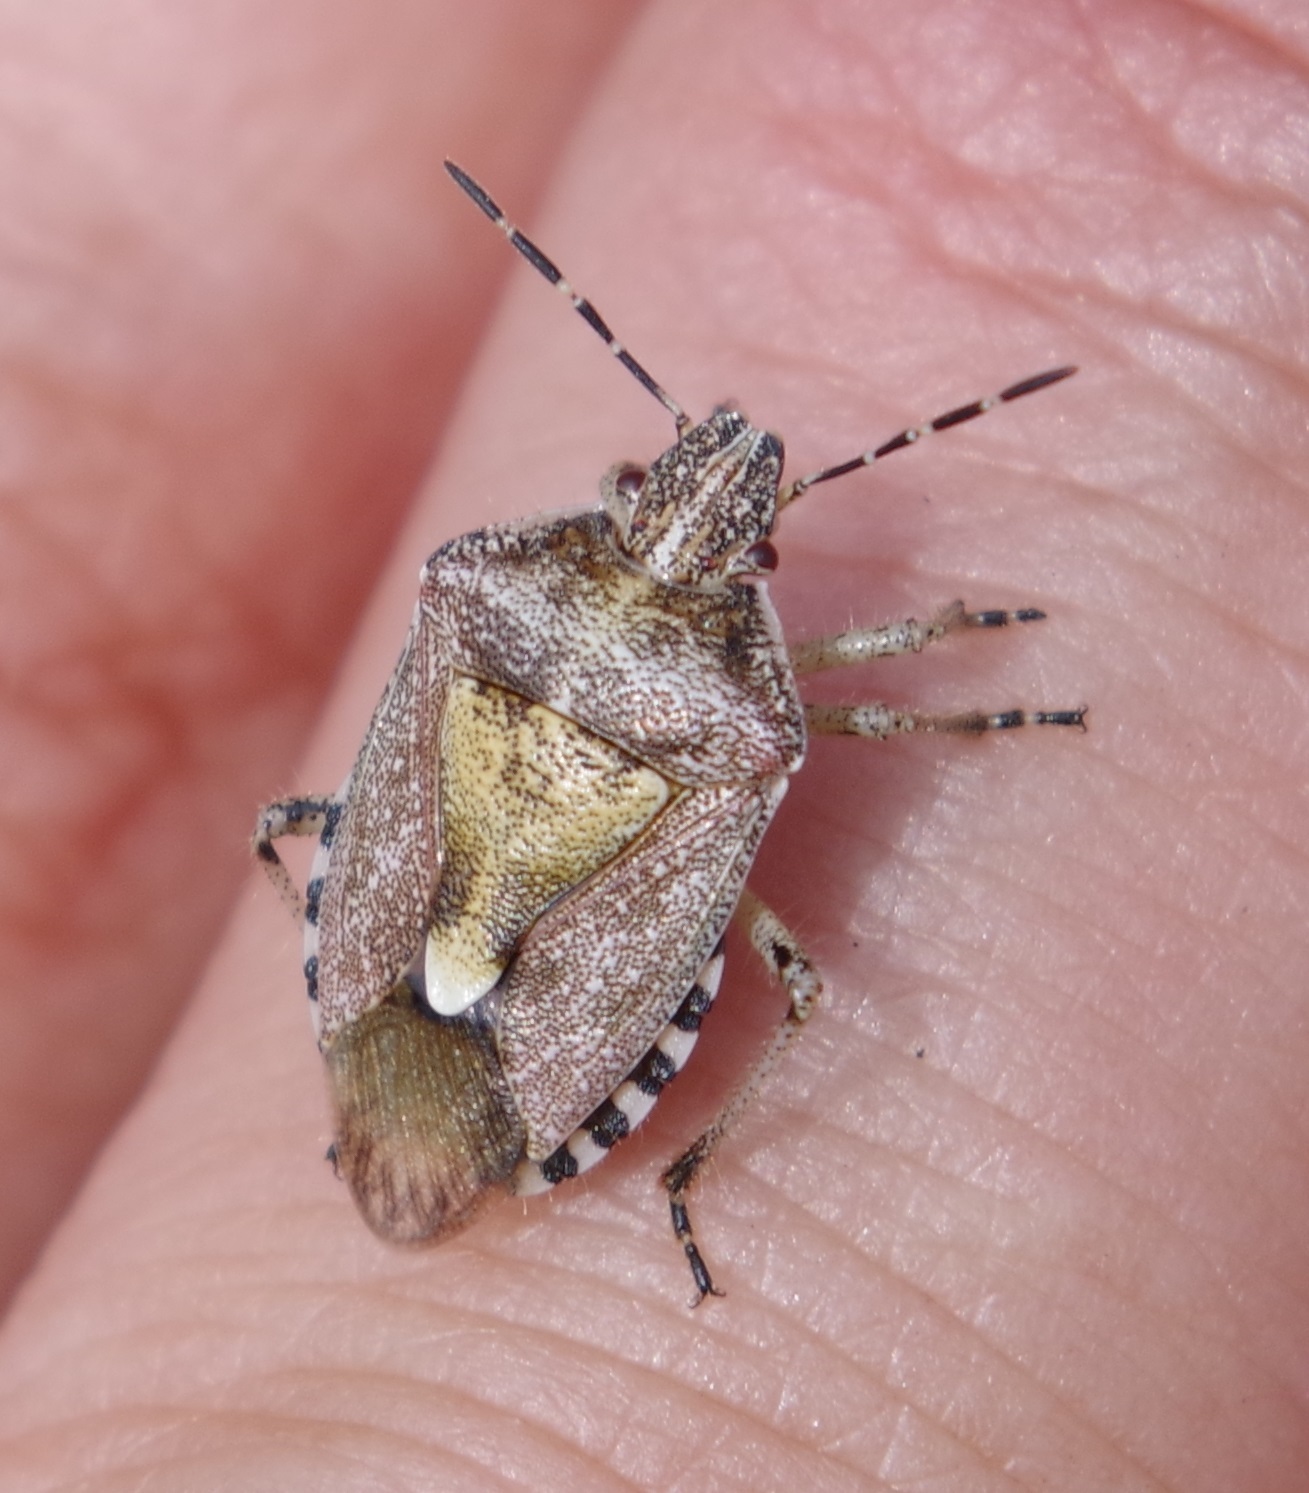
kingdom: Animalia
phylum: Arthropoda
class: Insecta
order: Hemiptera
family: Pentatomidae
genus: Dolycoris
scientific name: Dolycoris baccarum
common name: Sloe bug
